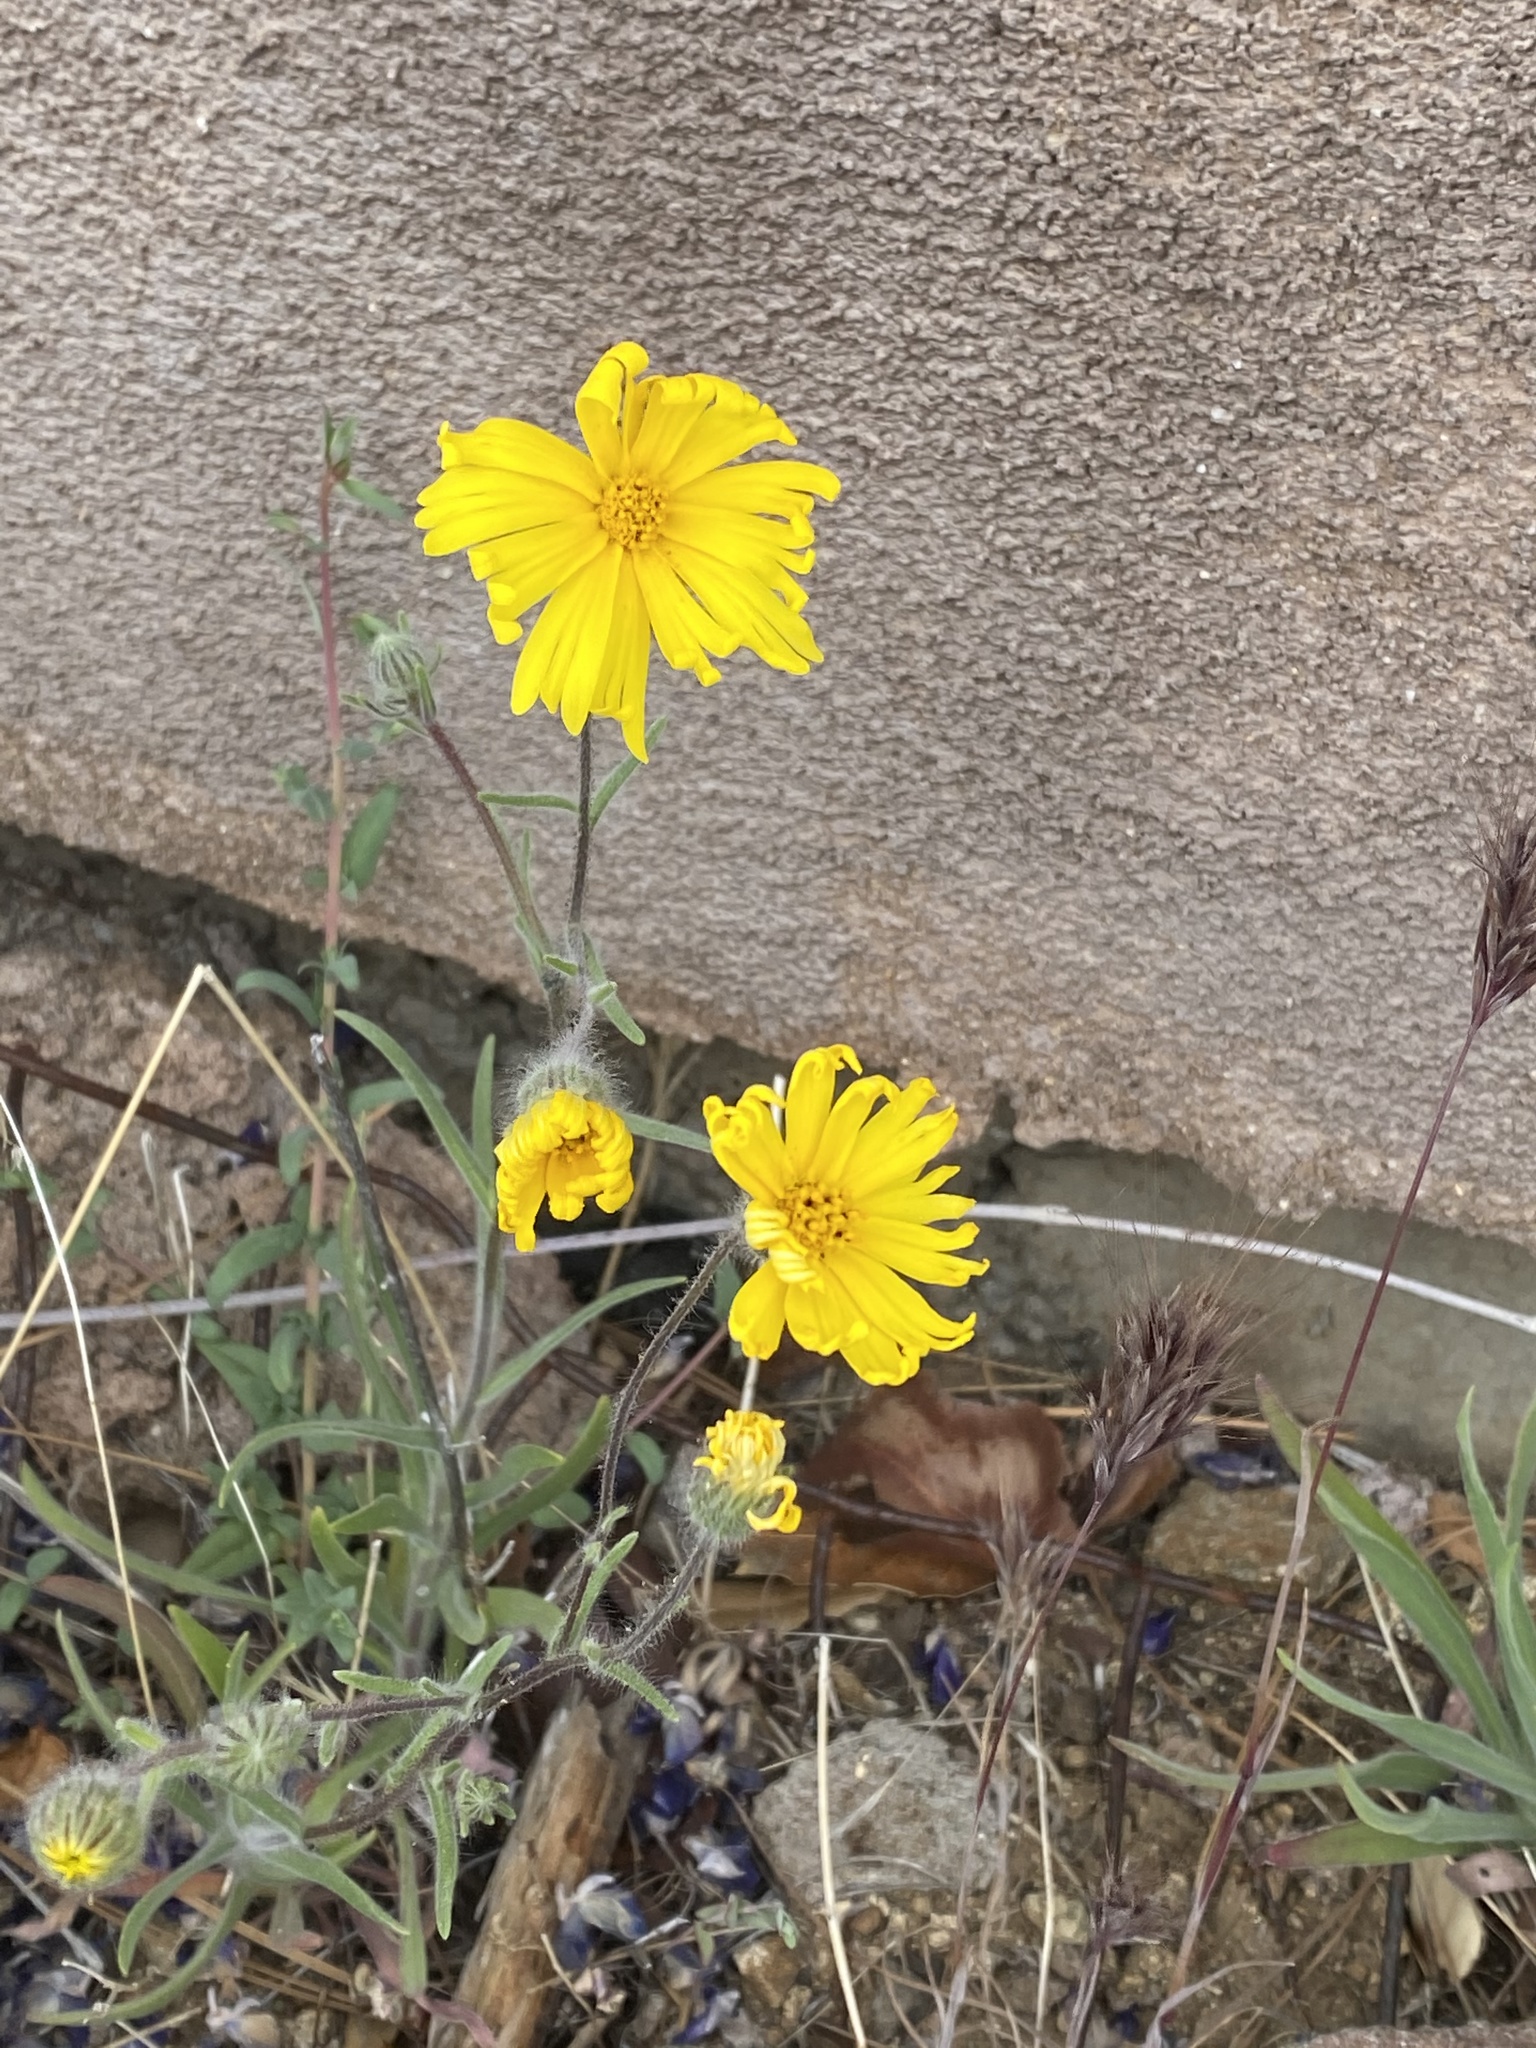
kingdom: Plantae
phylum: Tracheophyta
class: Magnoliopsida
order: Asterales
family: Asteraceae
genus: Madia
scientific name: Madia elegans
